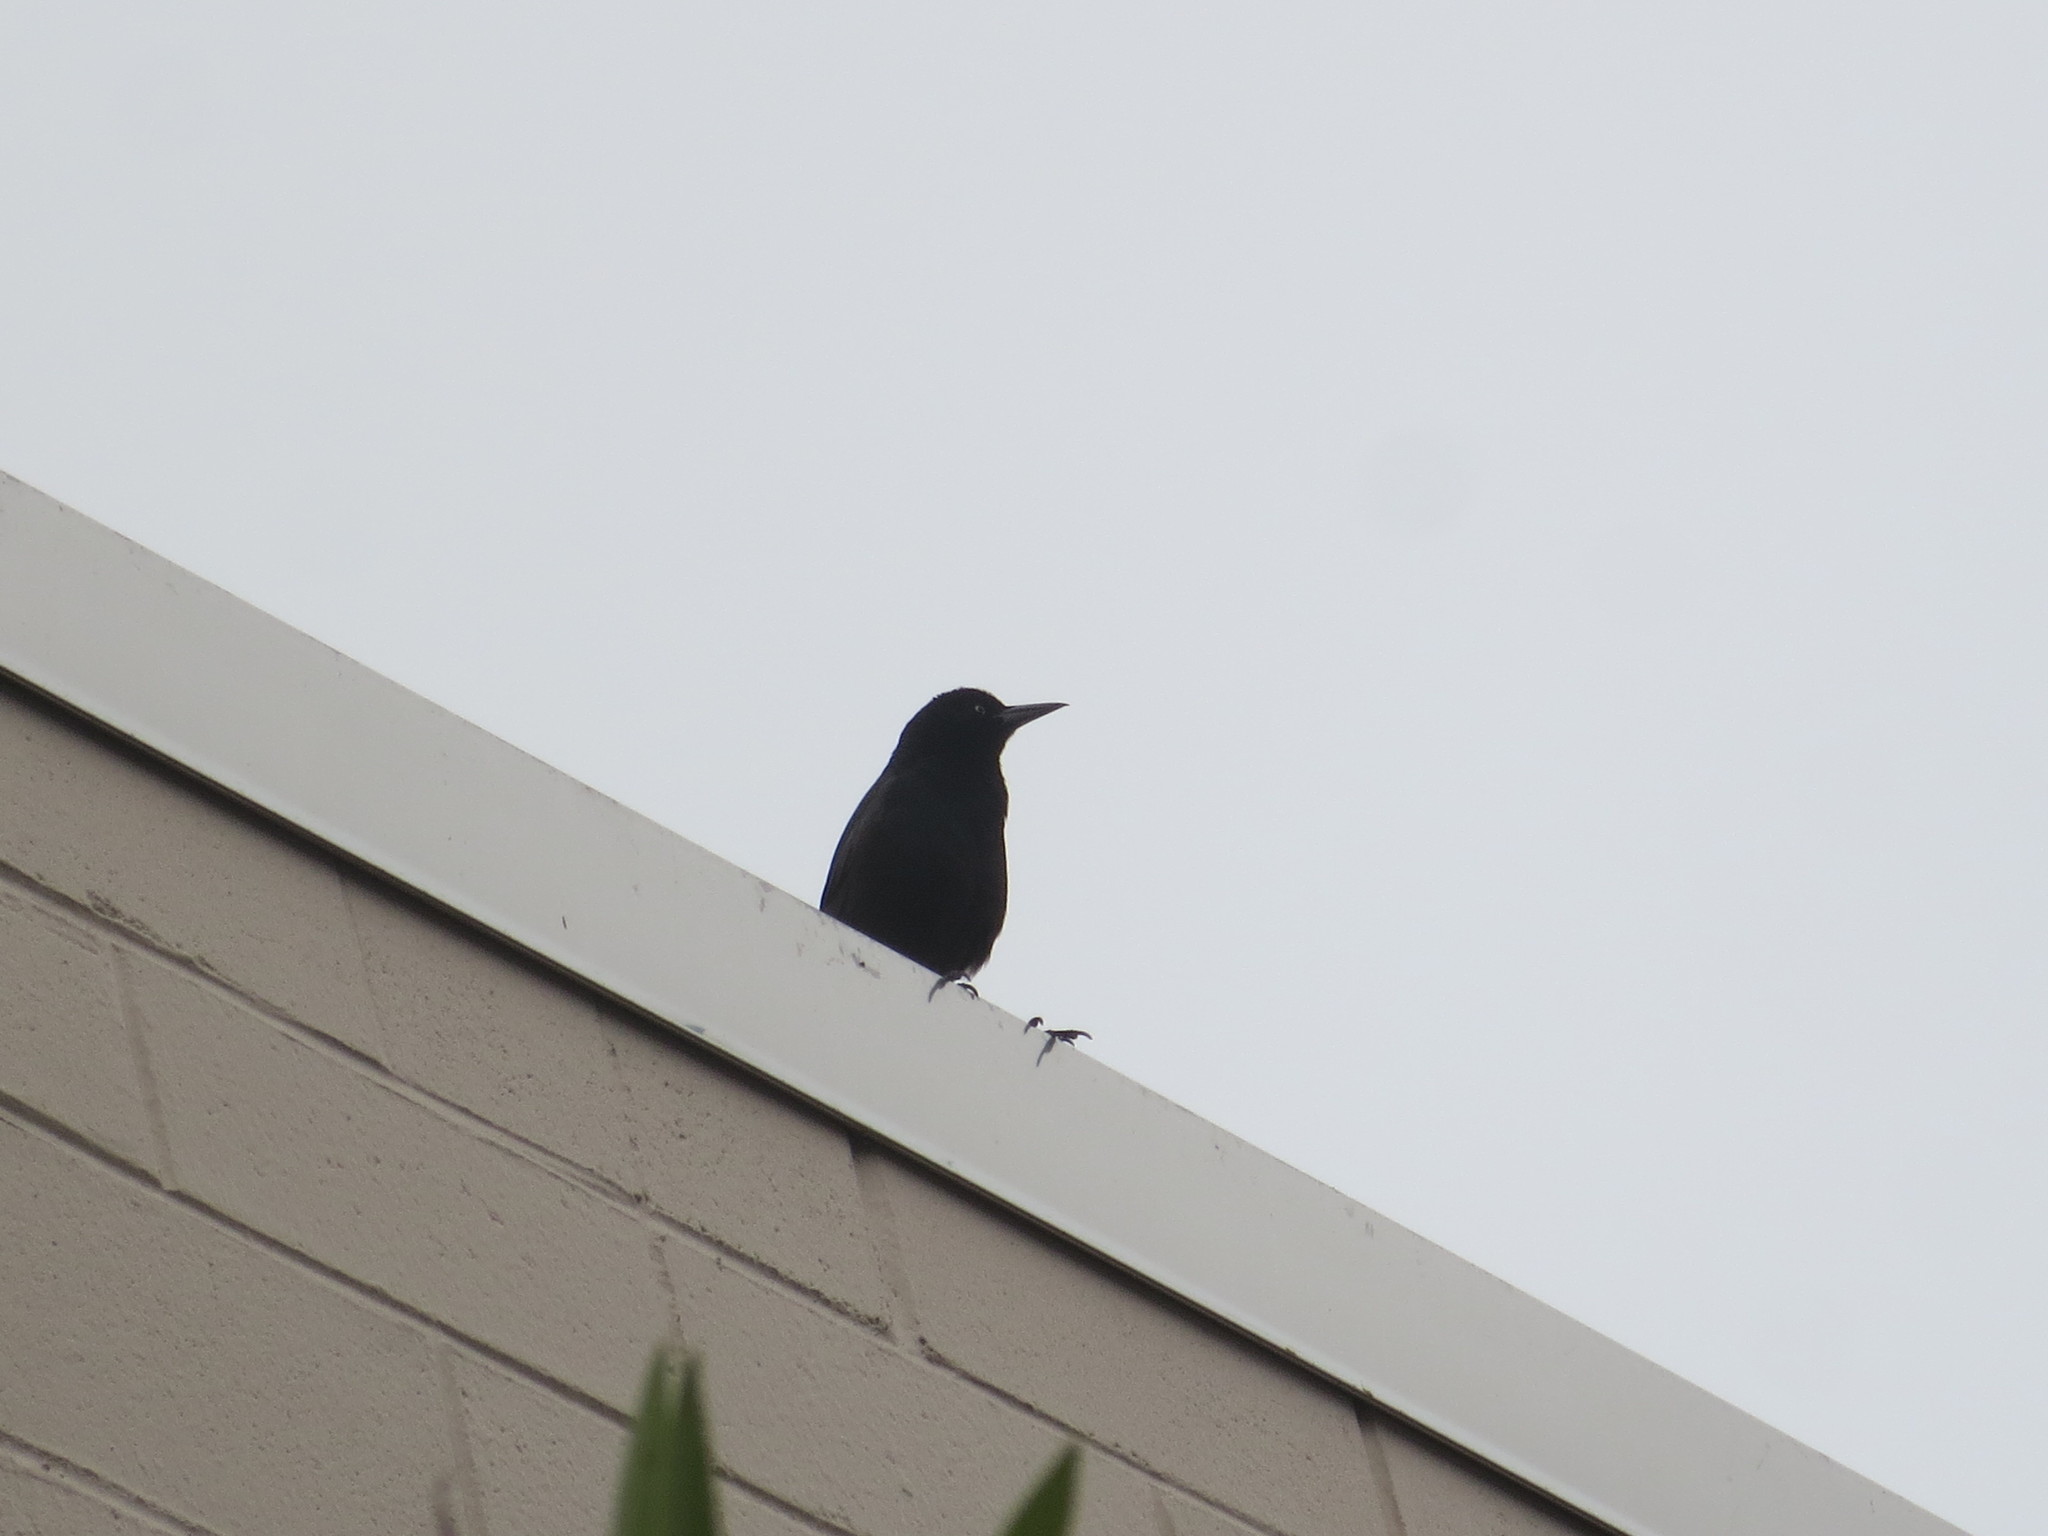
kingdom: Animalia
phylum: Chordata
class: Aves
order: Passeriformes
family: Icteridae
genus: Quiscalus
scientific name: Quiscalus major
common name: Boat-tailed grackle
